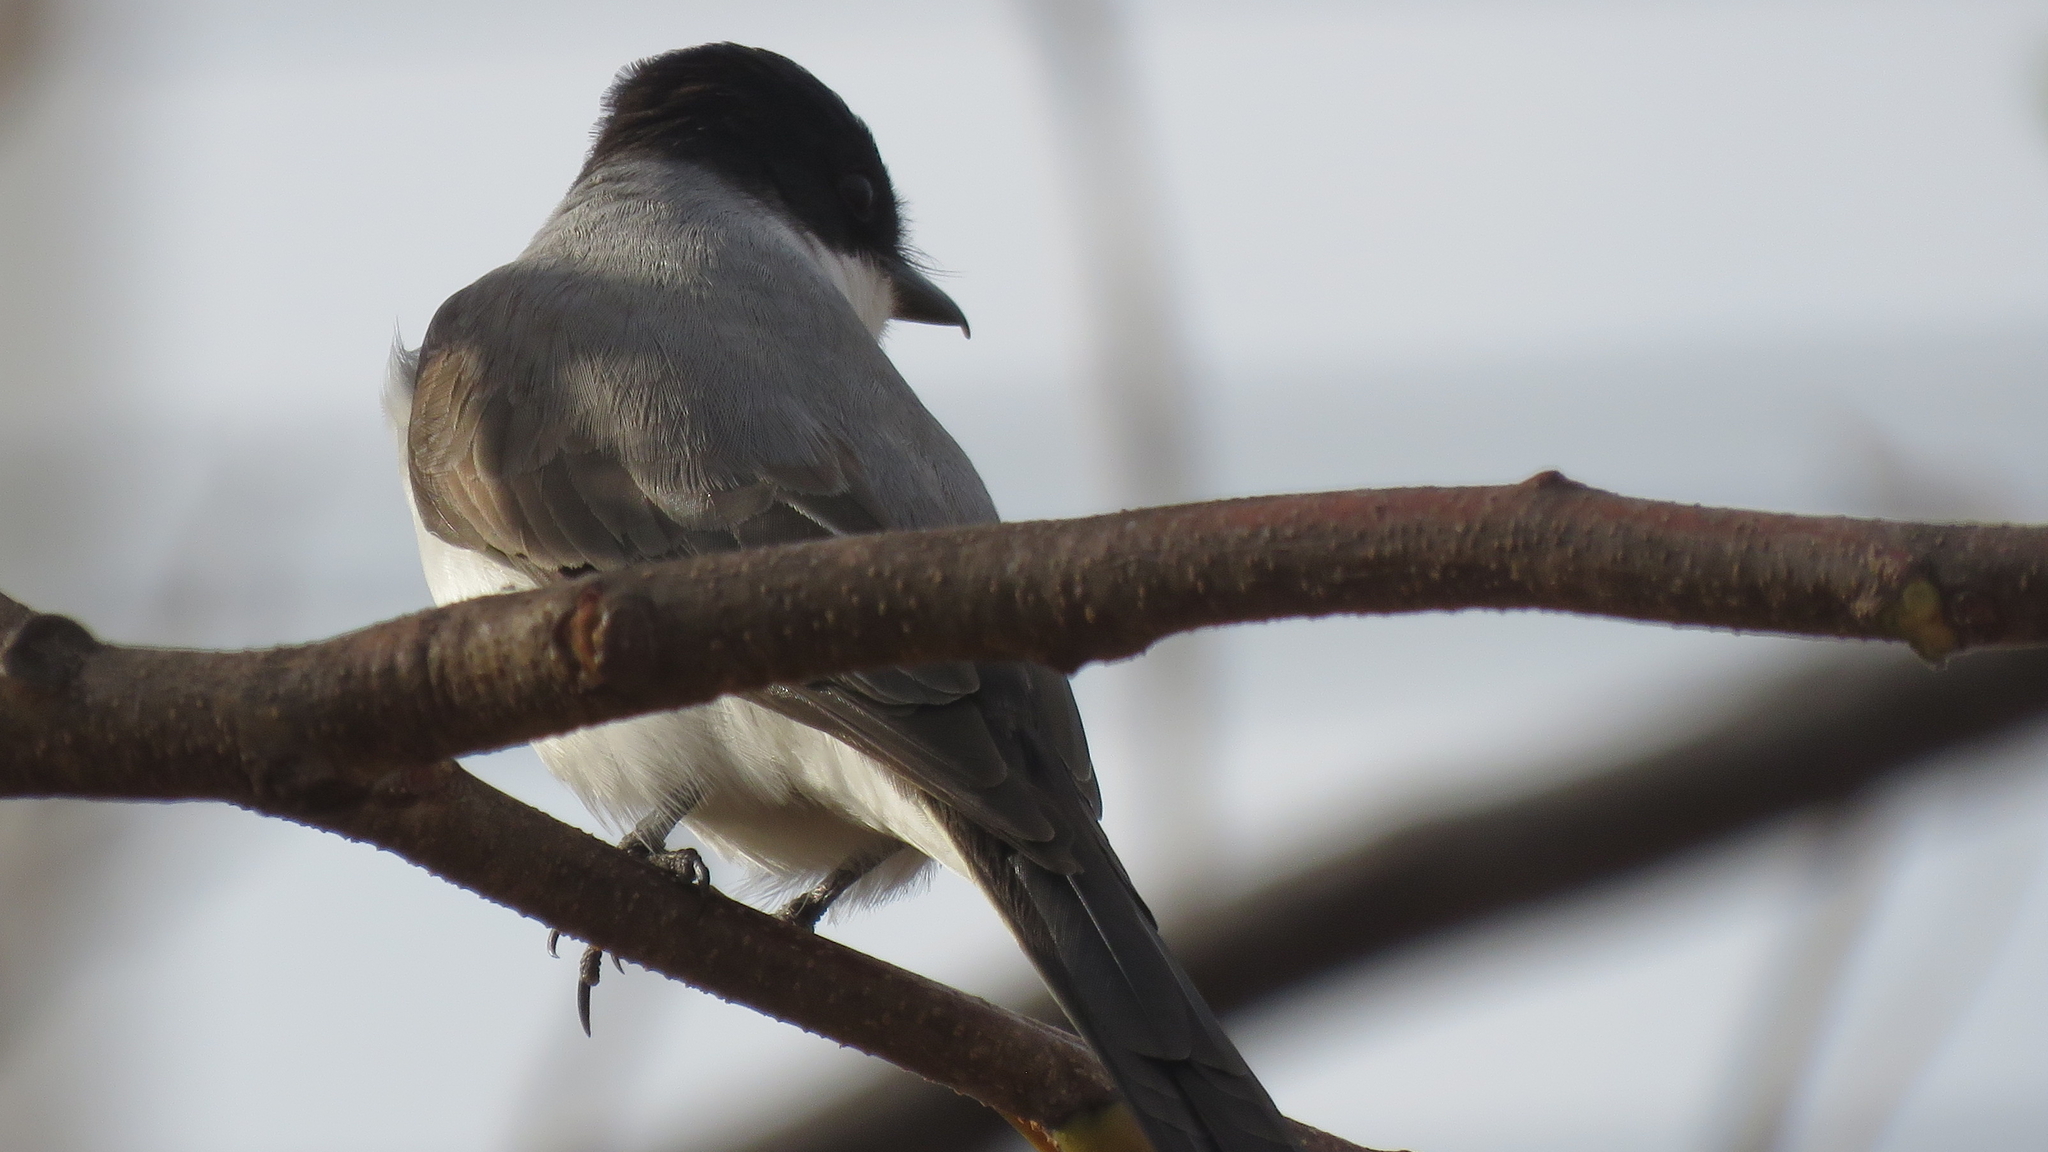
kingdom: Animalia
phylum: Chordata
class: Aves
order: Passeriformes
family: Tyrannidae
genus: Tyrannus
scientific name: Tyrannus savana
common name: Fork-tailed flycatcher
